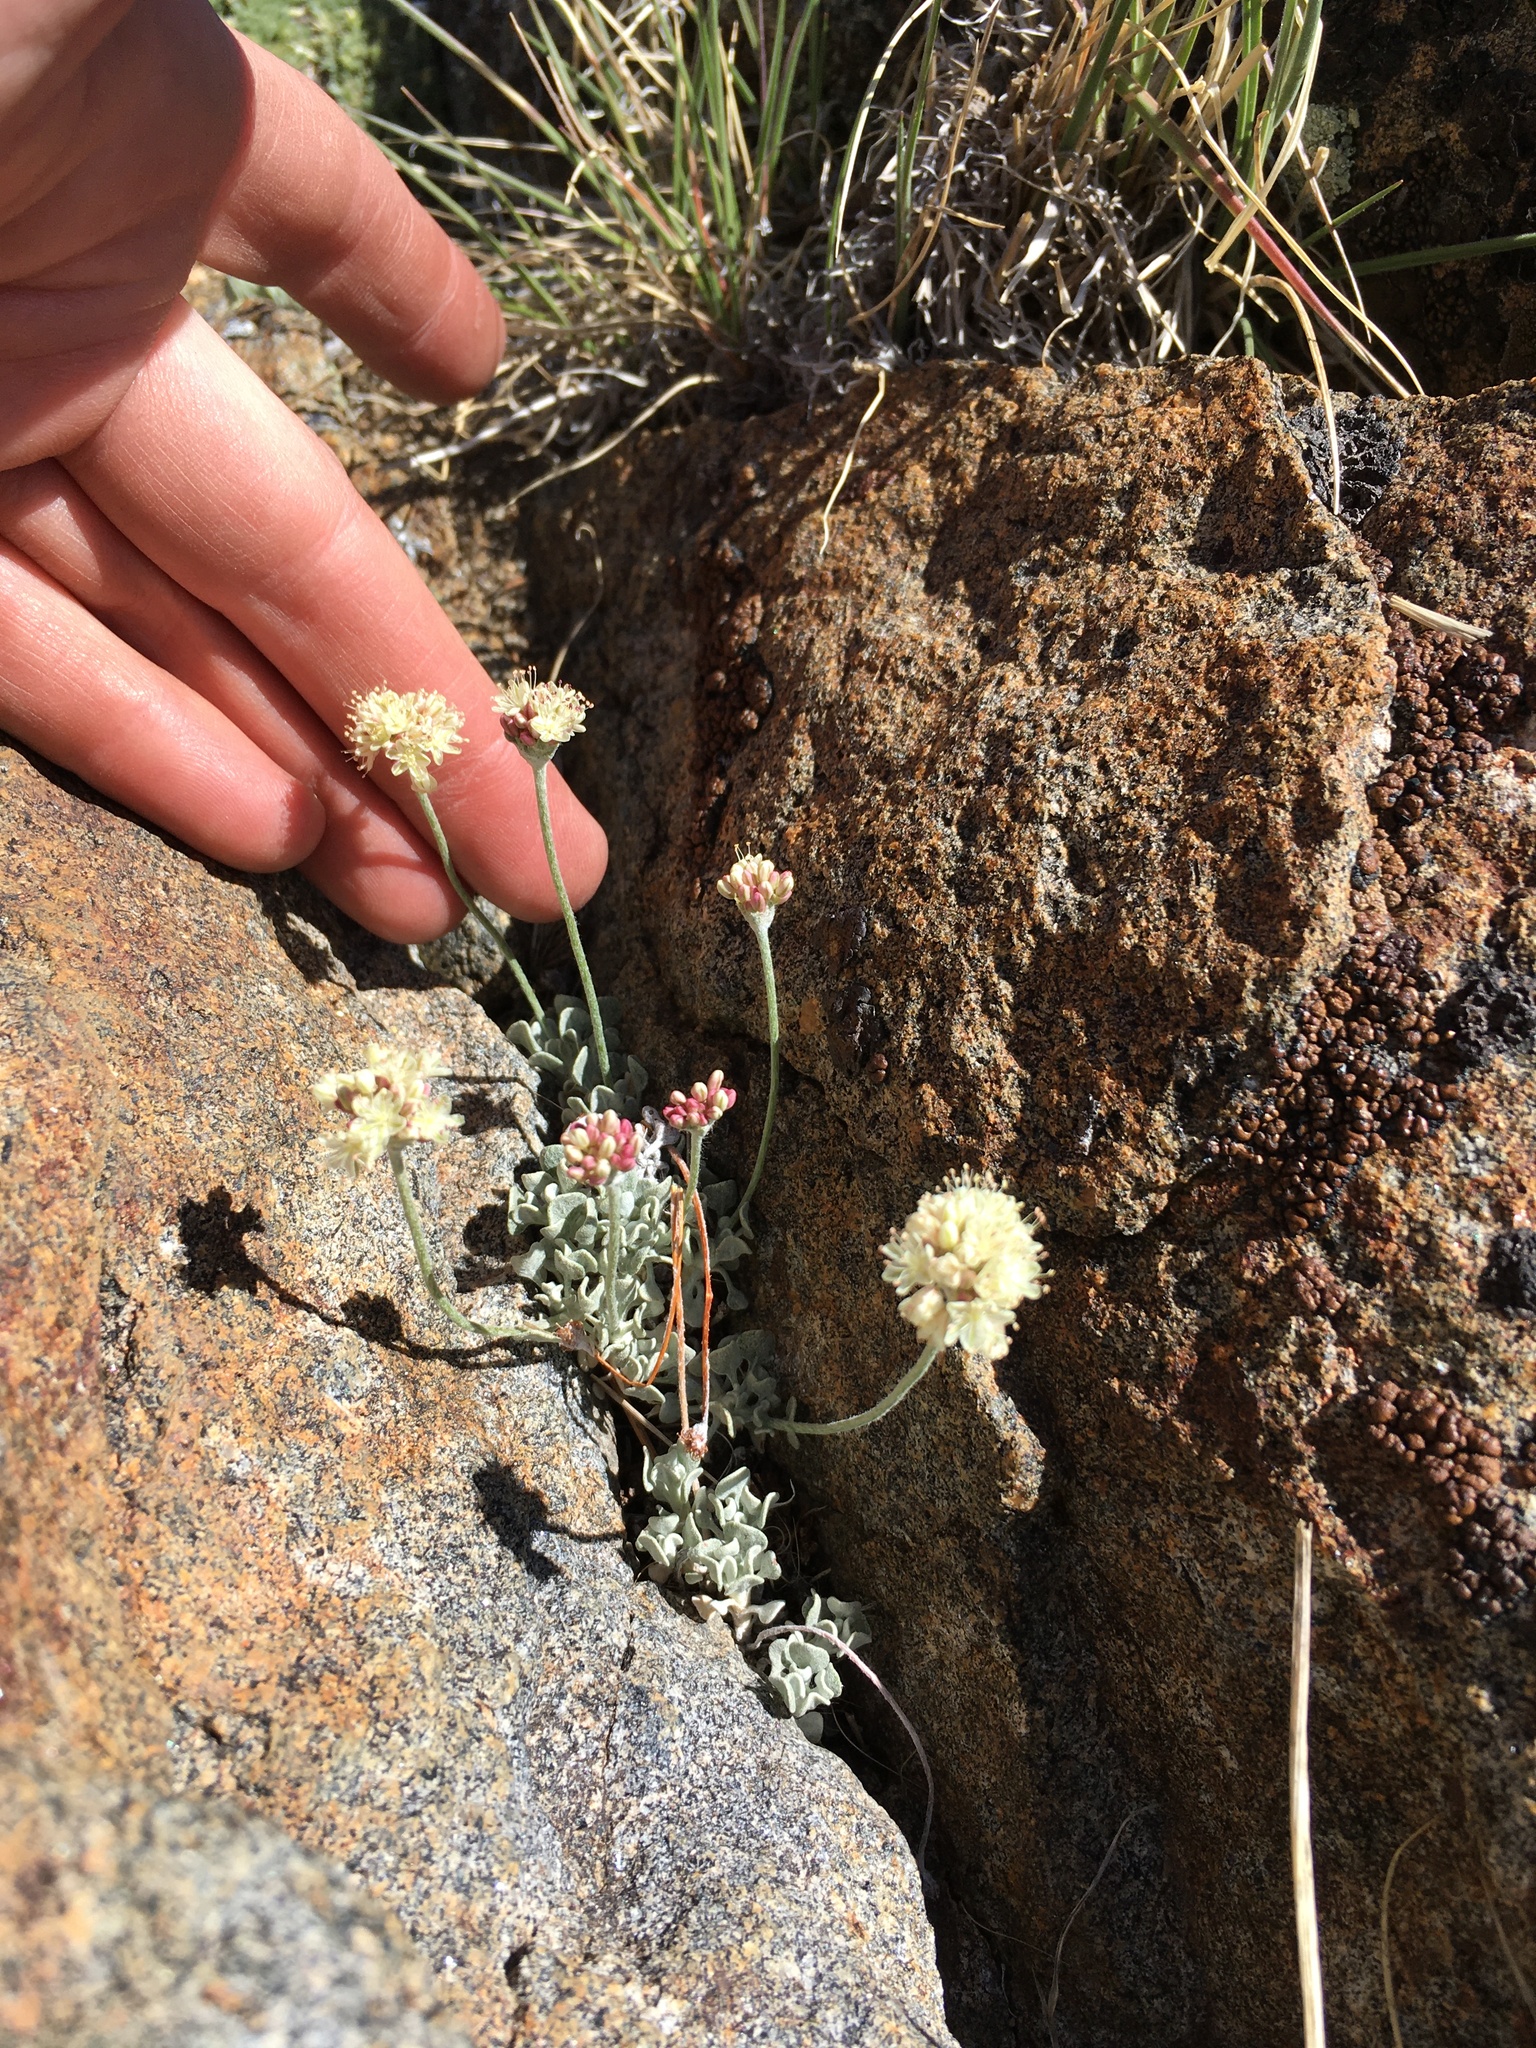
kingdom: Plantae
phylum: Tracheophyta
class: Magnoliopsida
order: Caryophyllales
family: Polygonaceae
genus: Eriogonum
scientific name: Eriogonum ovalifolium
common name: Cushion buckwheat
